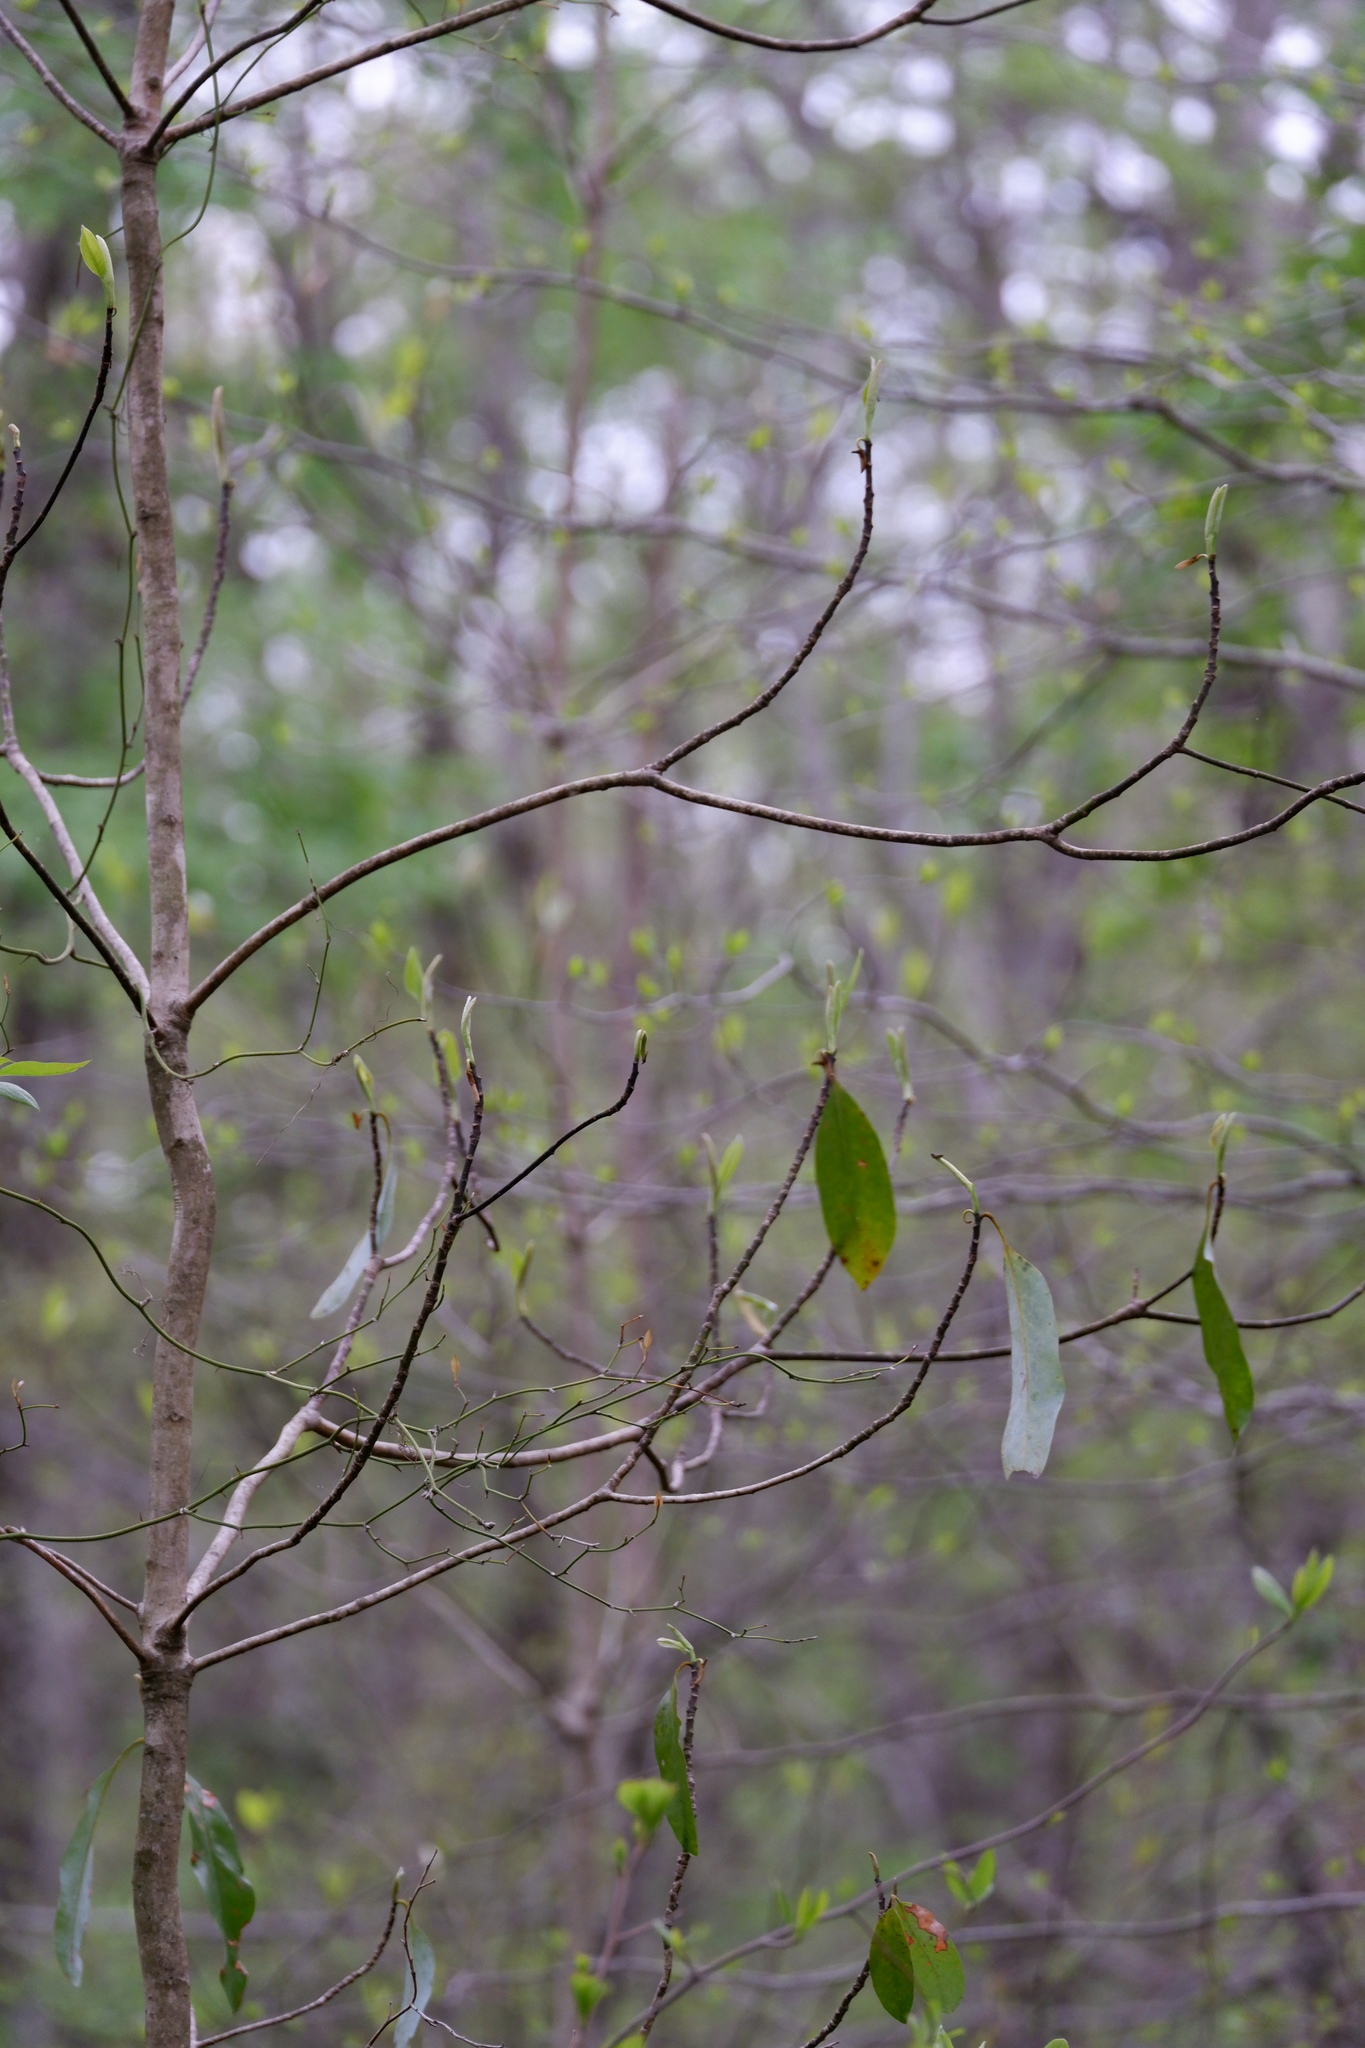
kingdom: Plantae
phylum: Tracheophyta
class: Magnoliopsida
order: Magnoliales
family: Magnoliaceae
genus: Magnolia
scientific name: Magnolia virginiana
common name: Swamp bay
